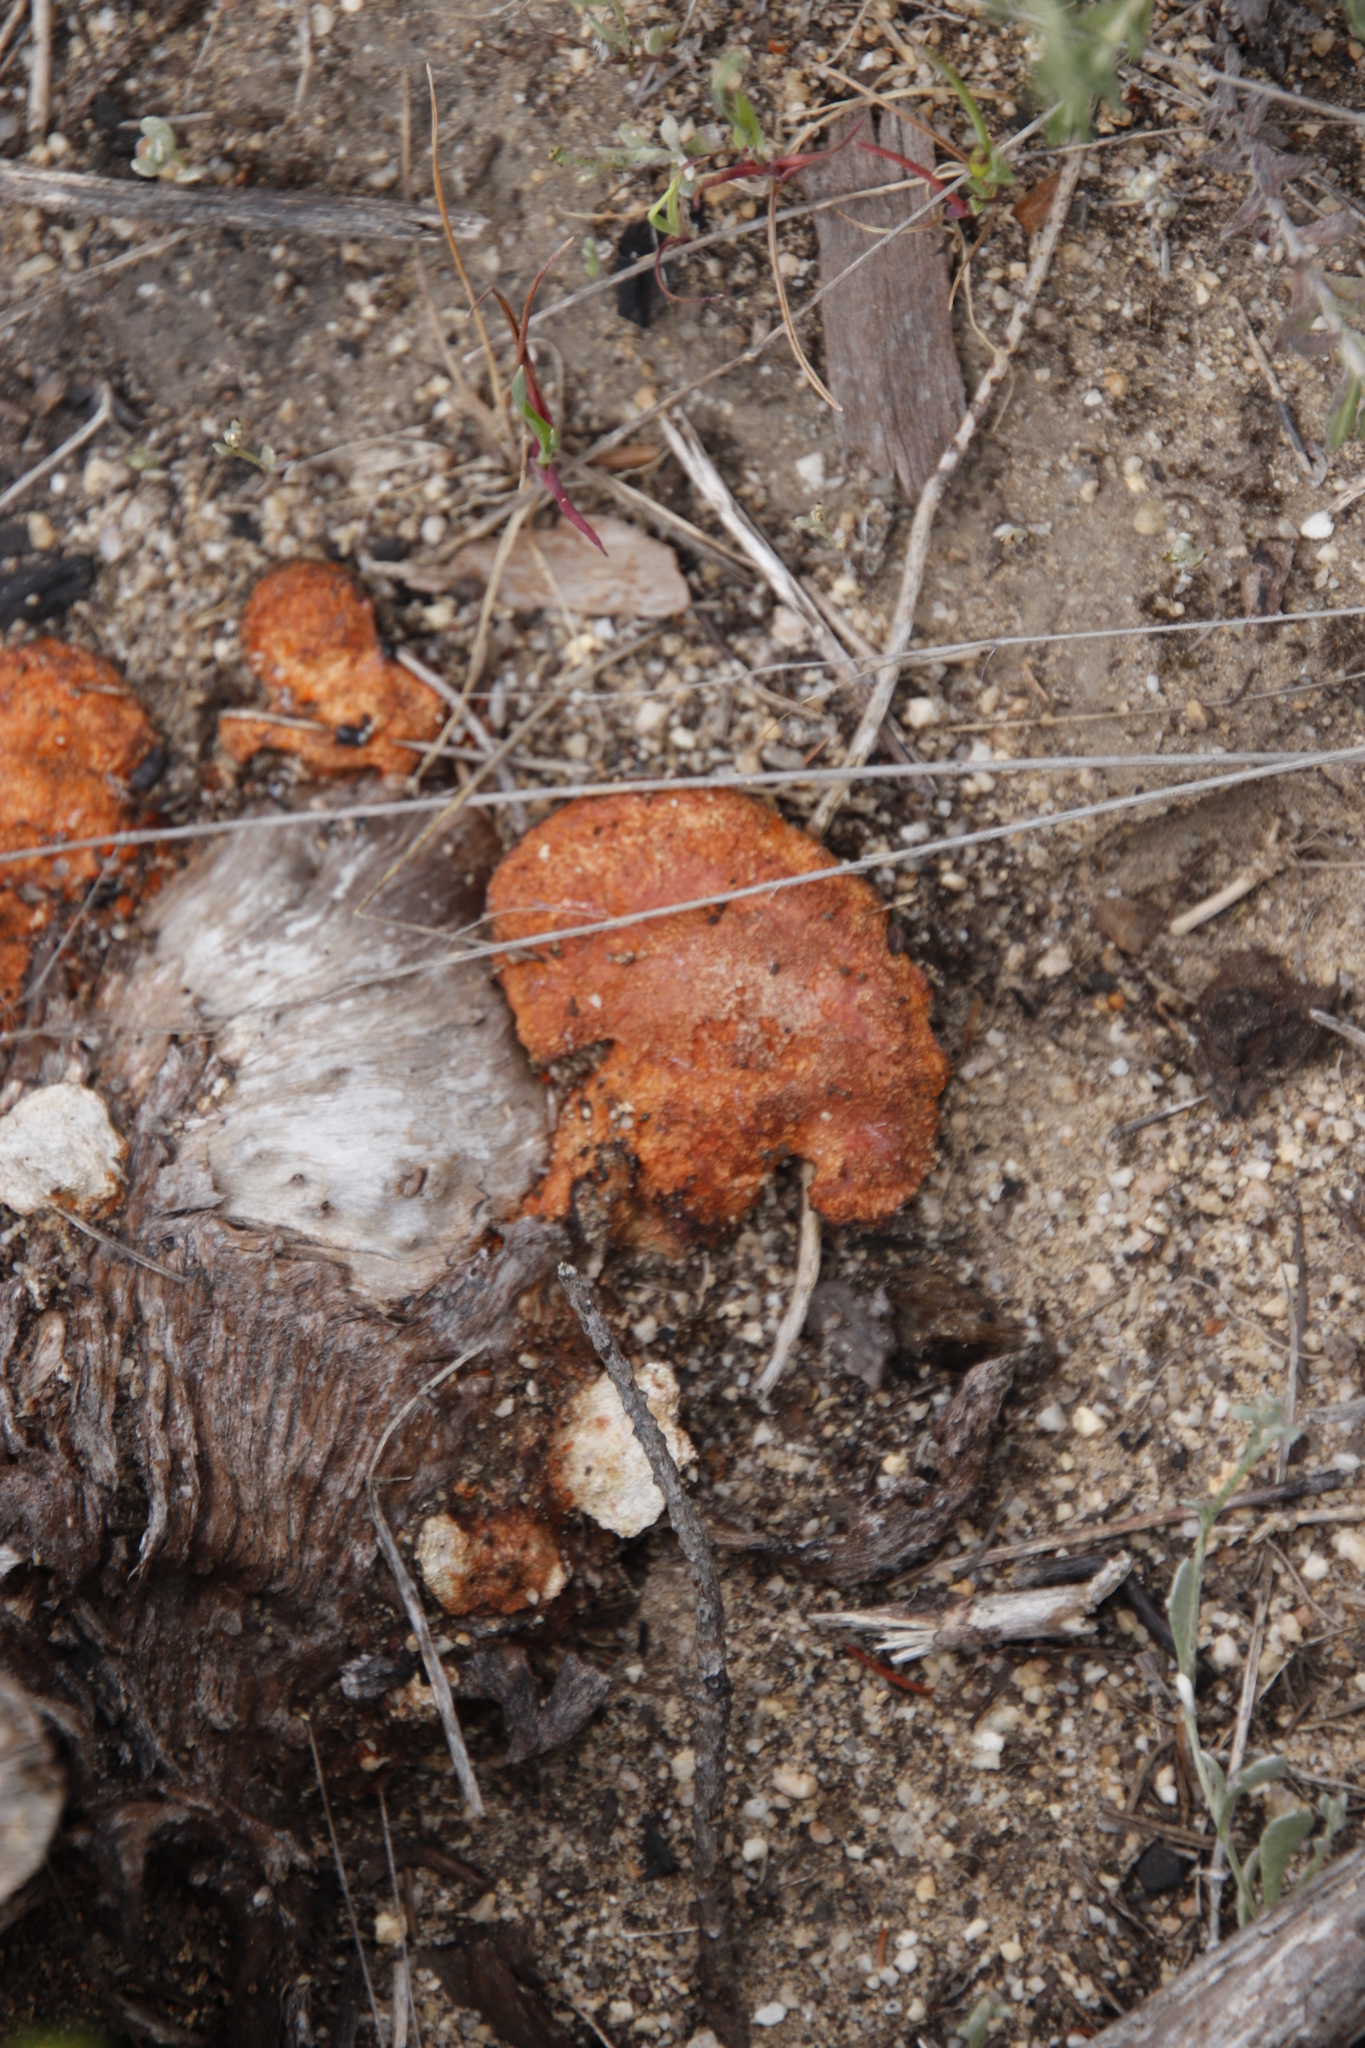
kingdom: Fungi
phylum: Basidiomycota
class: Agaricomycetes
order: Polyporales
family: Polyporaceae
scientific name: Polyporaceae
